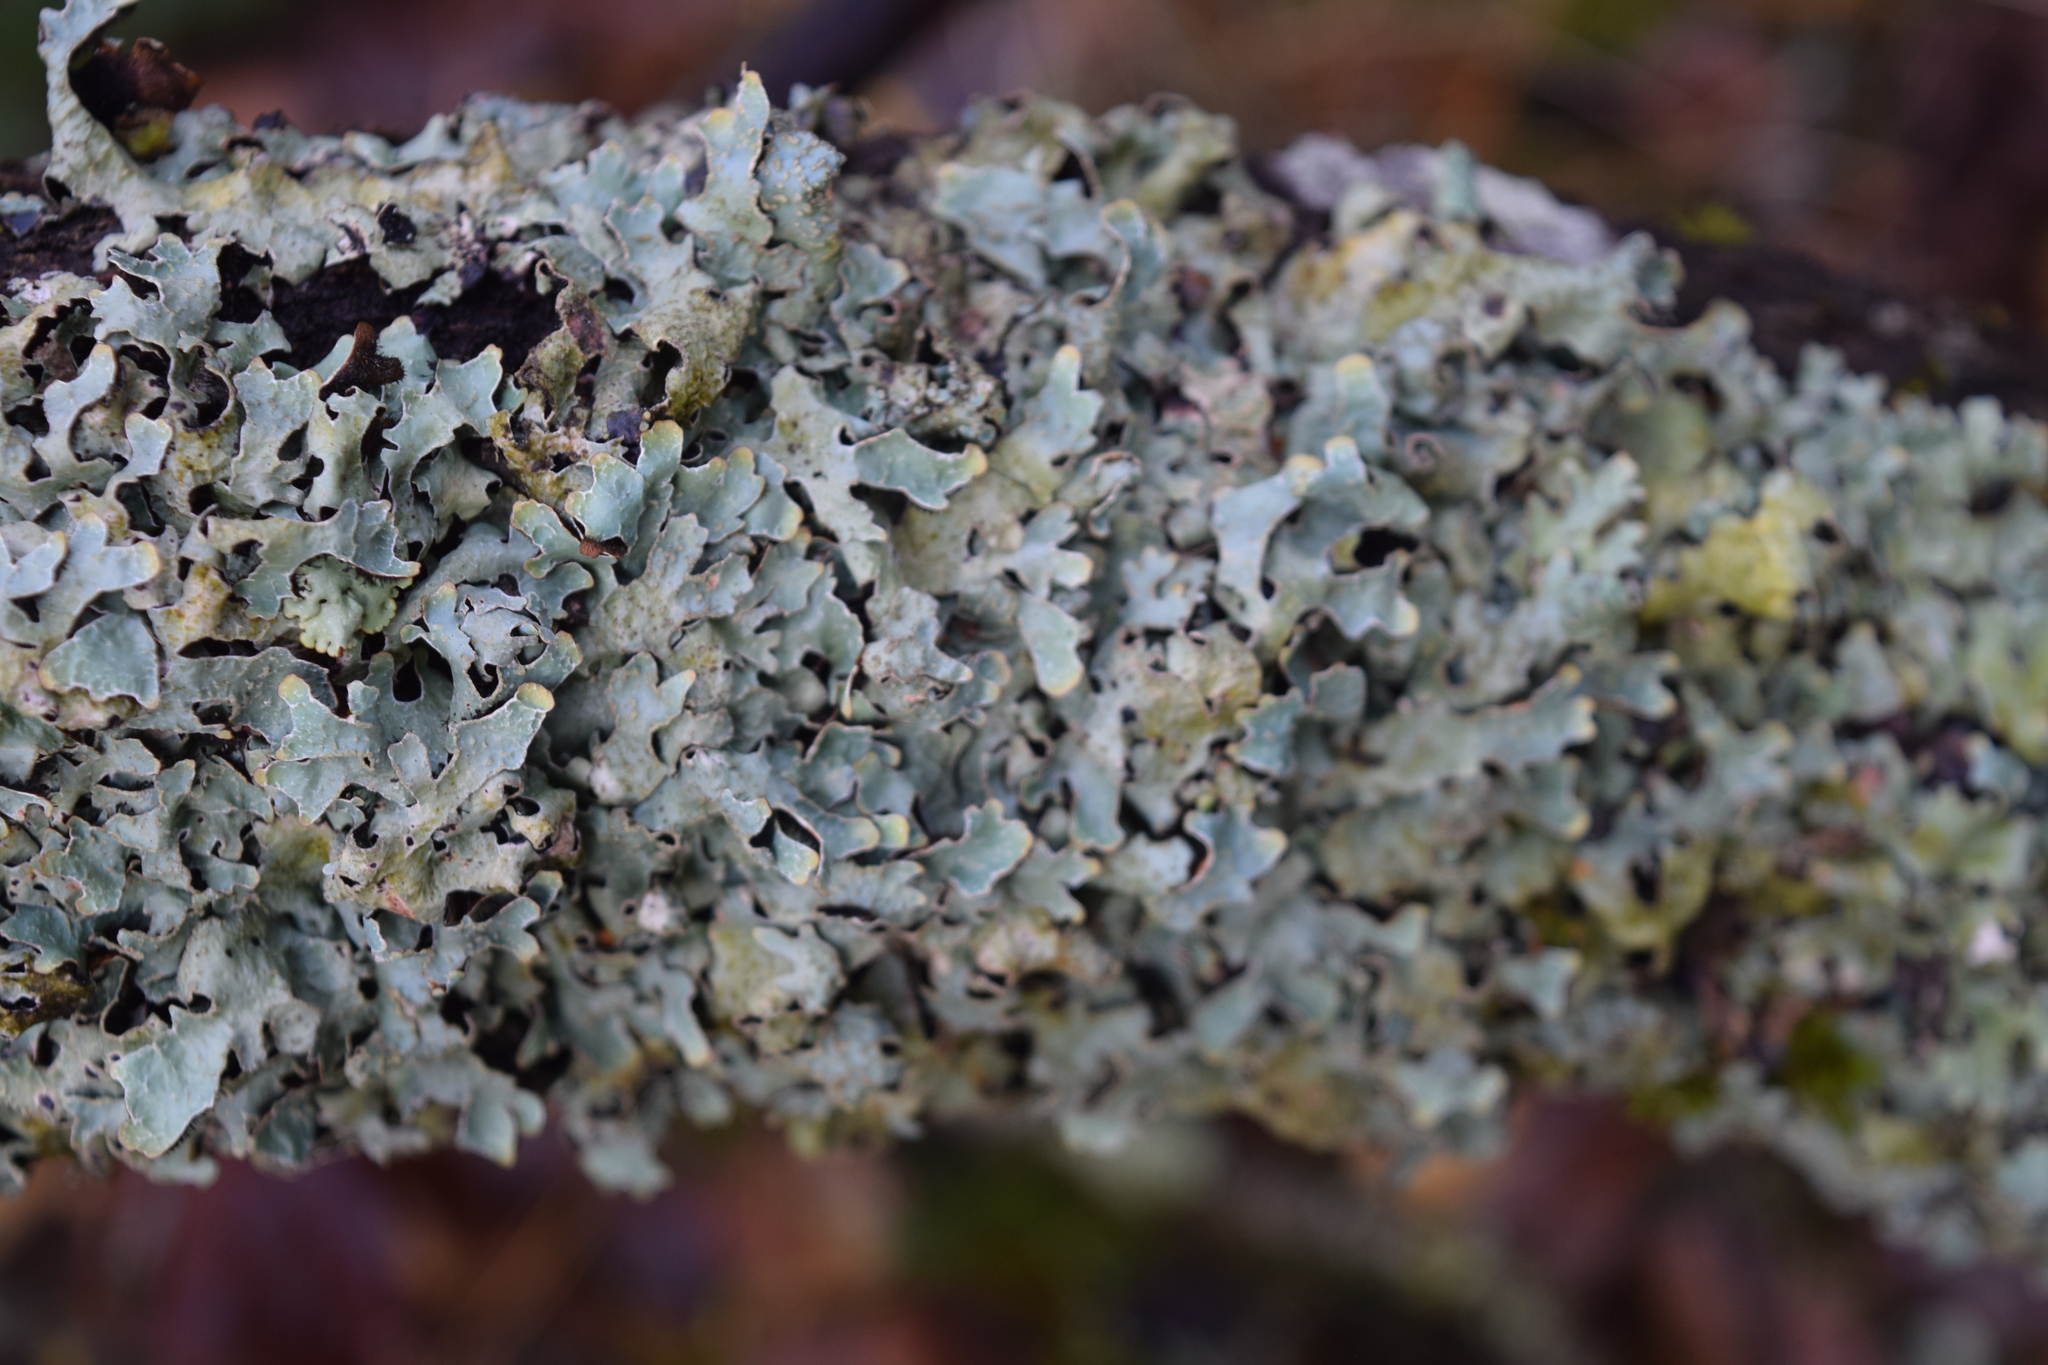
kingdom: Fungi
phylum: Ascomycota
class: Lecanoromycetes
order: Lecanorales
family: Parmeliaceae
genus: Parmelia
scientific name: Parmelia sulcata
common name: Netted shield lichen
